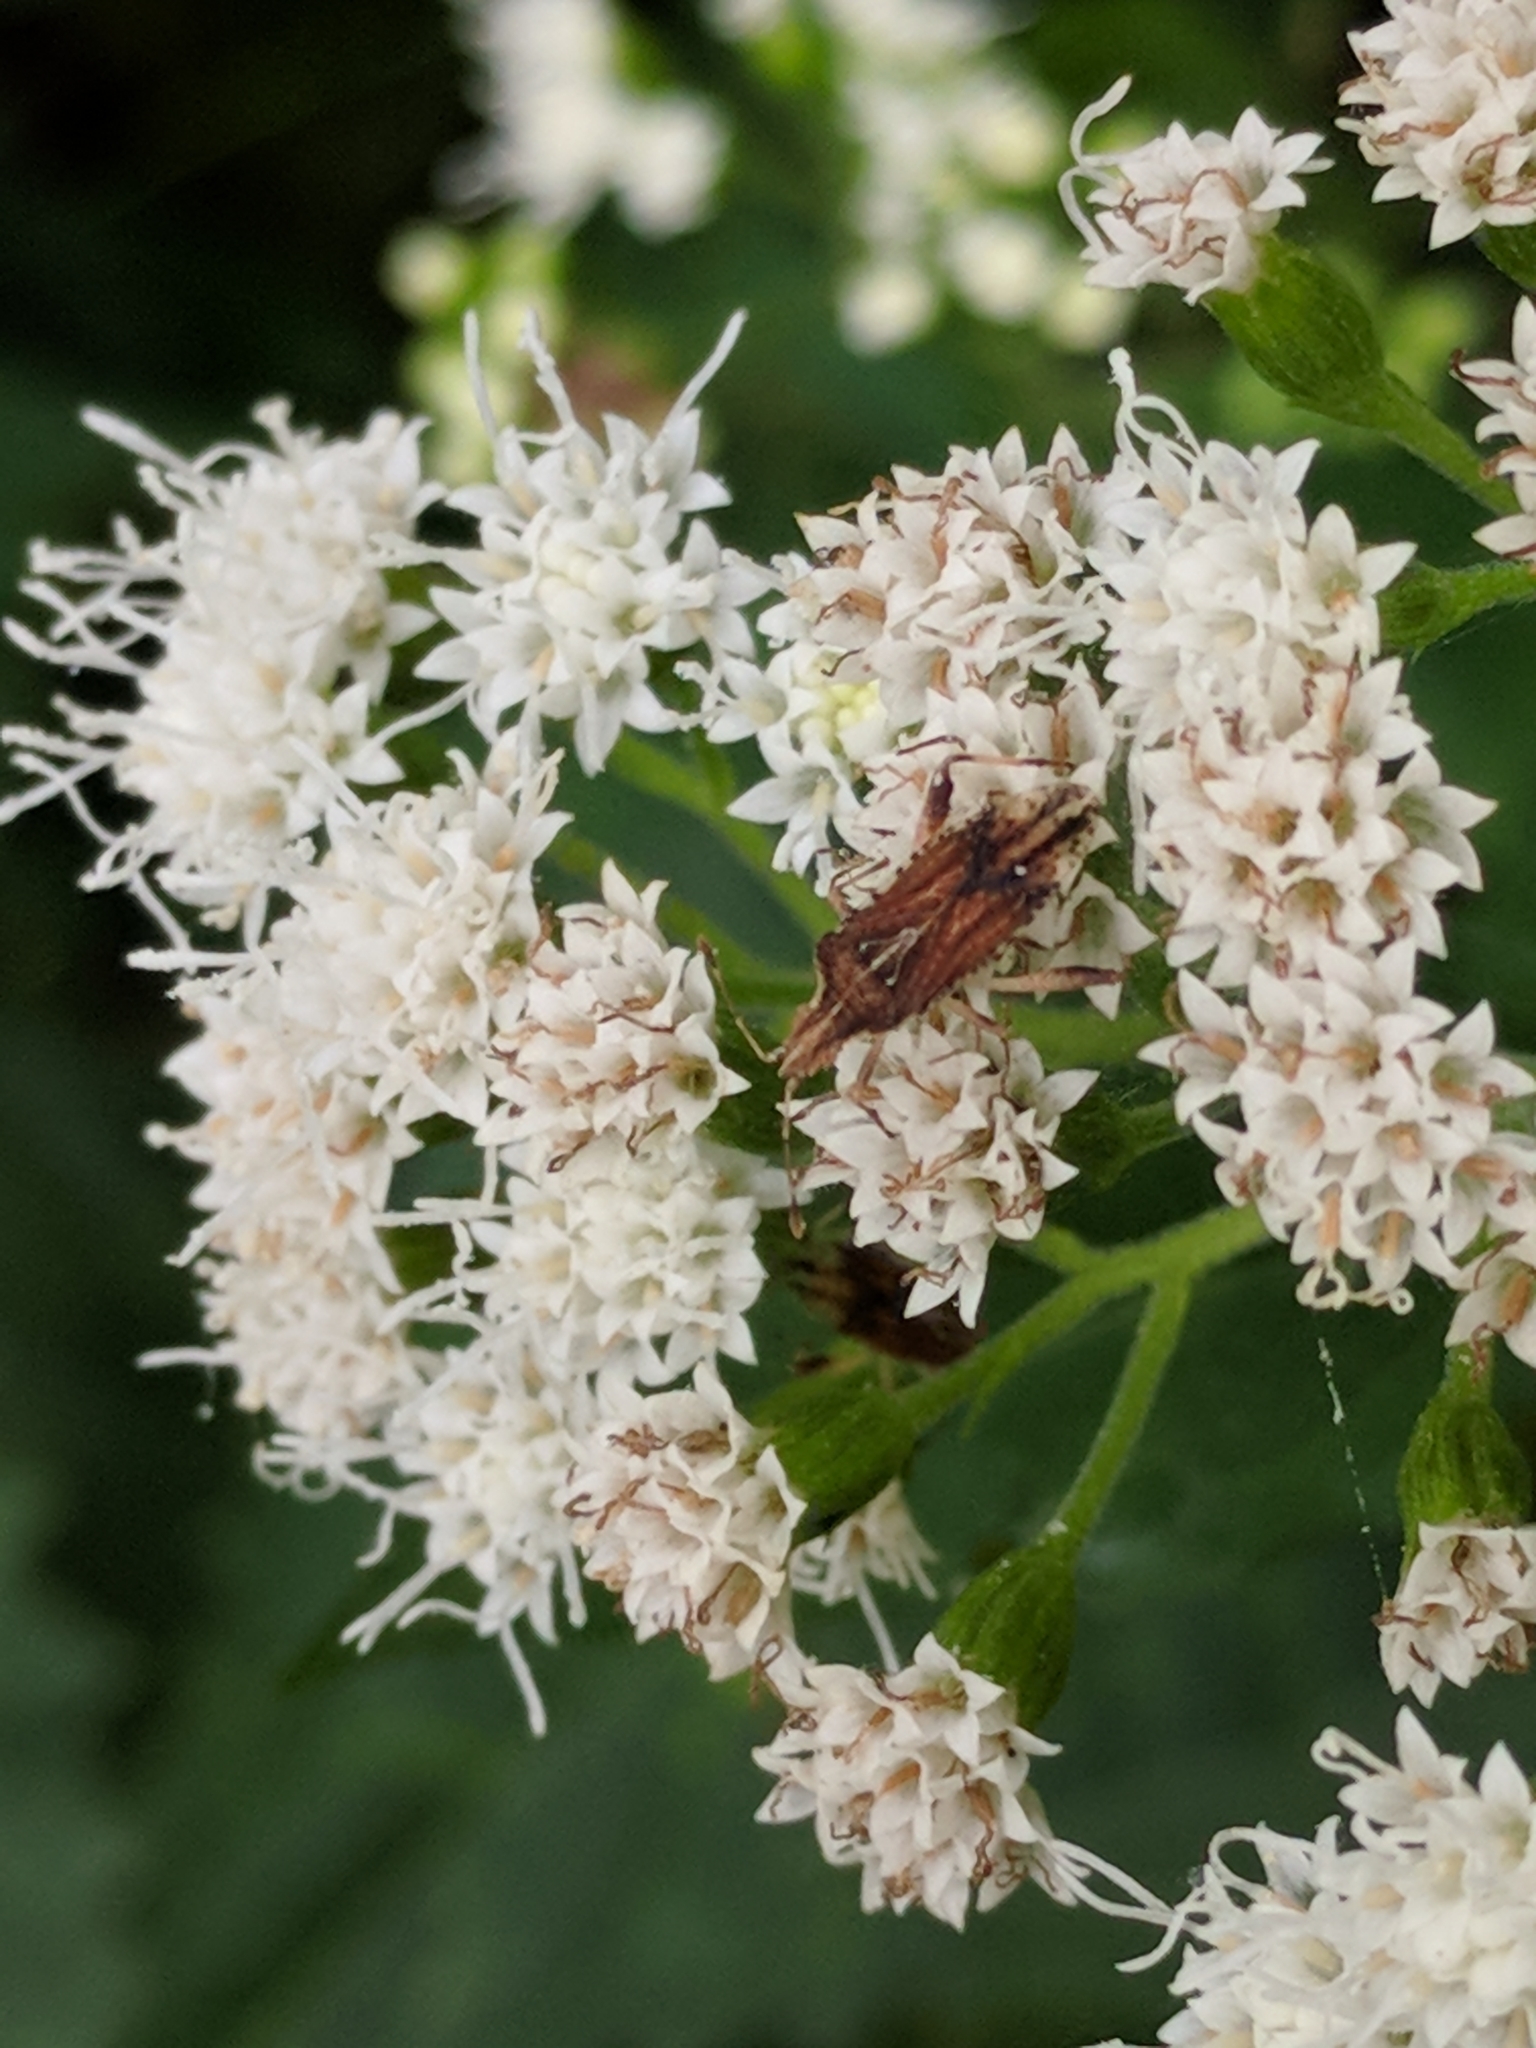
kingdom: Plantae
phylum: Tracheophyta
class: Magnoliopsida
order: Asterales
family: Asteraceae
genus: Ageratina
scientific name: Ageratina altissima
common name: White snakeroot
